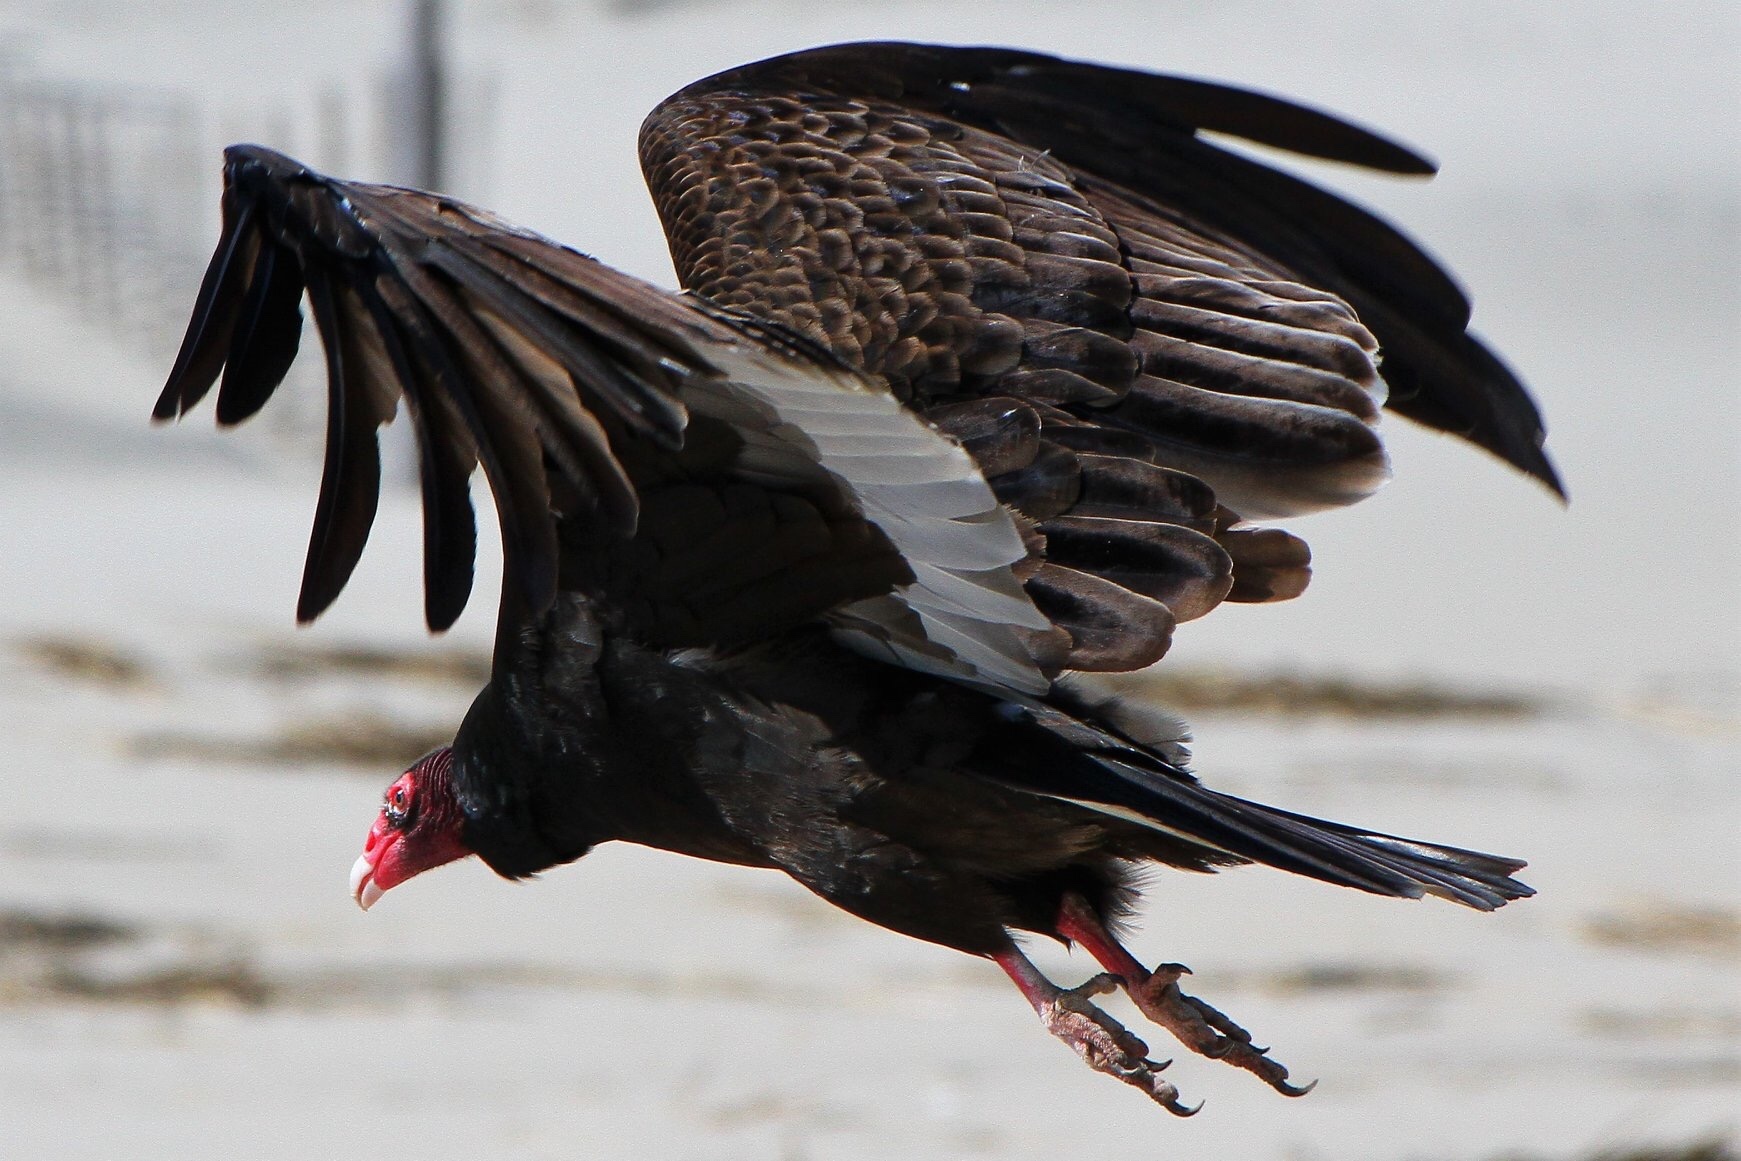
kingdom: Animalia
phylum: Chordata
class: Aves
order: Accipitriformes
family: Cathartidae
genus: Cathartes
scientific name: Cathartes aura
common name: Turkey vulture
